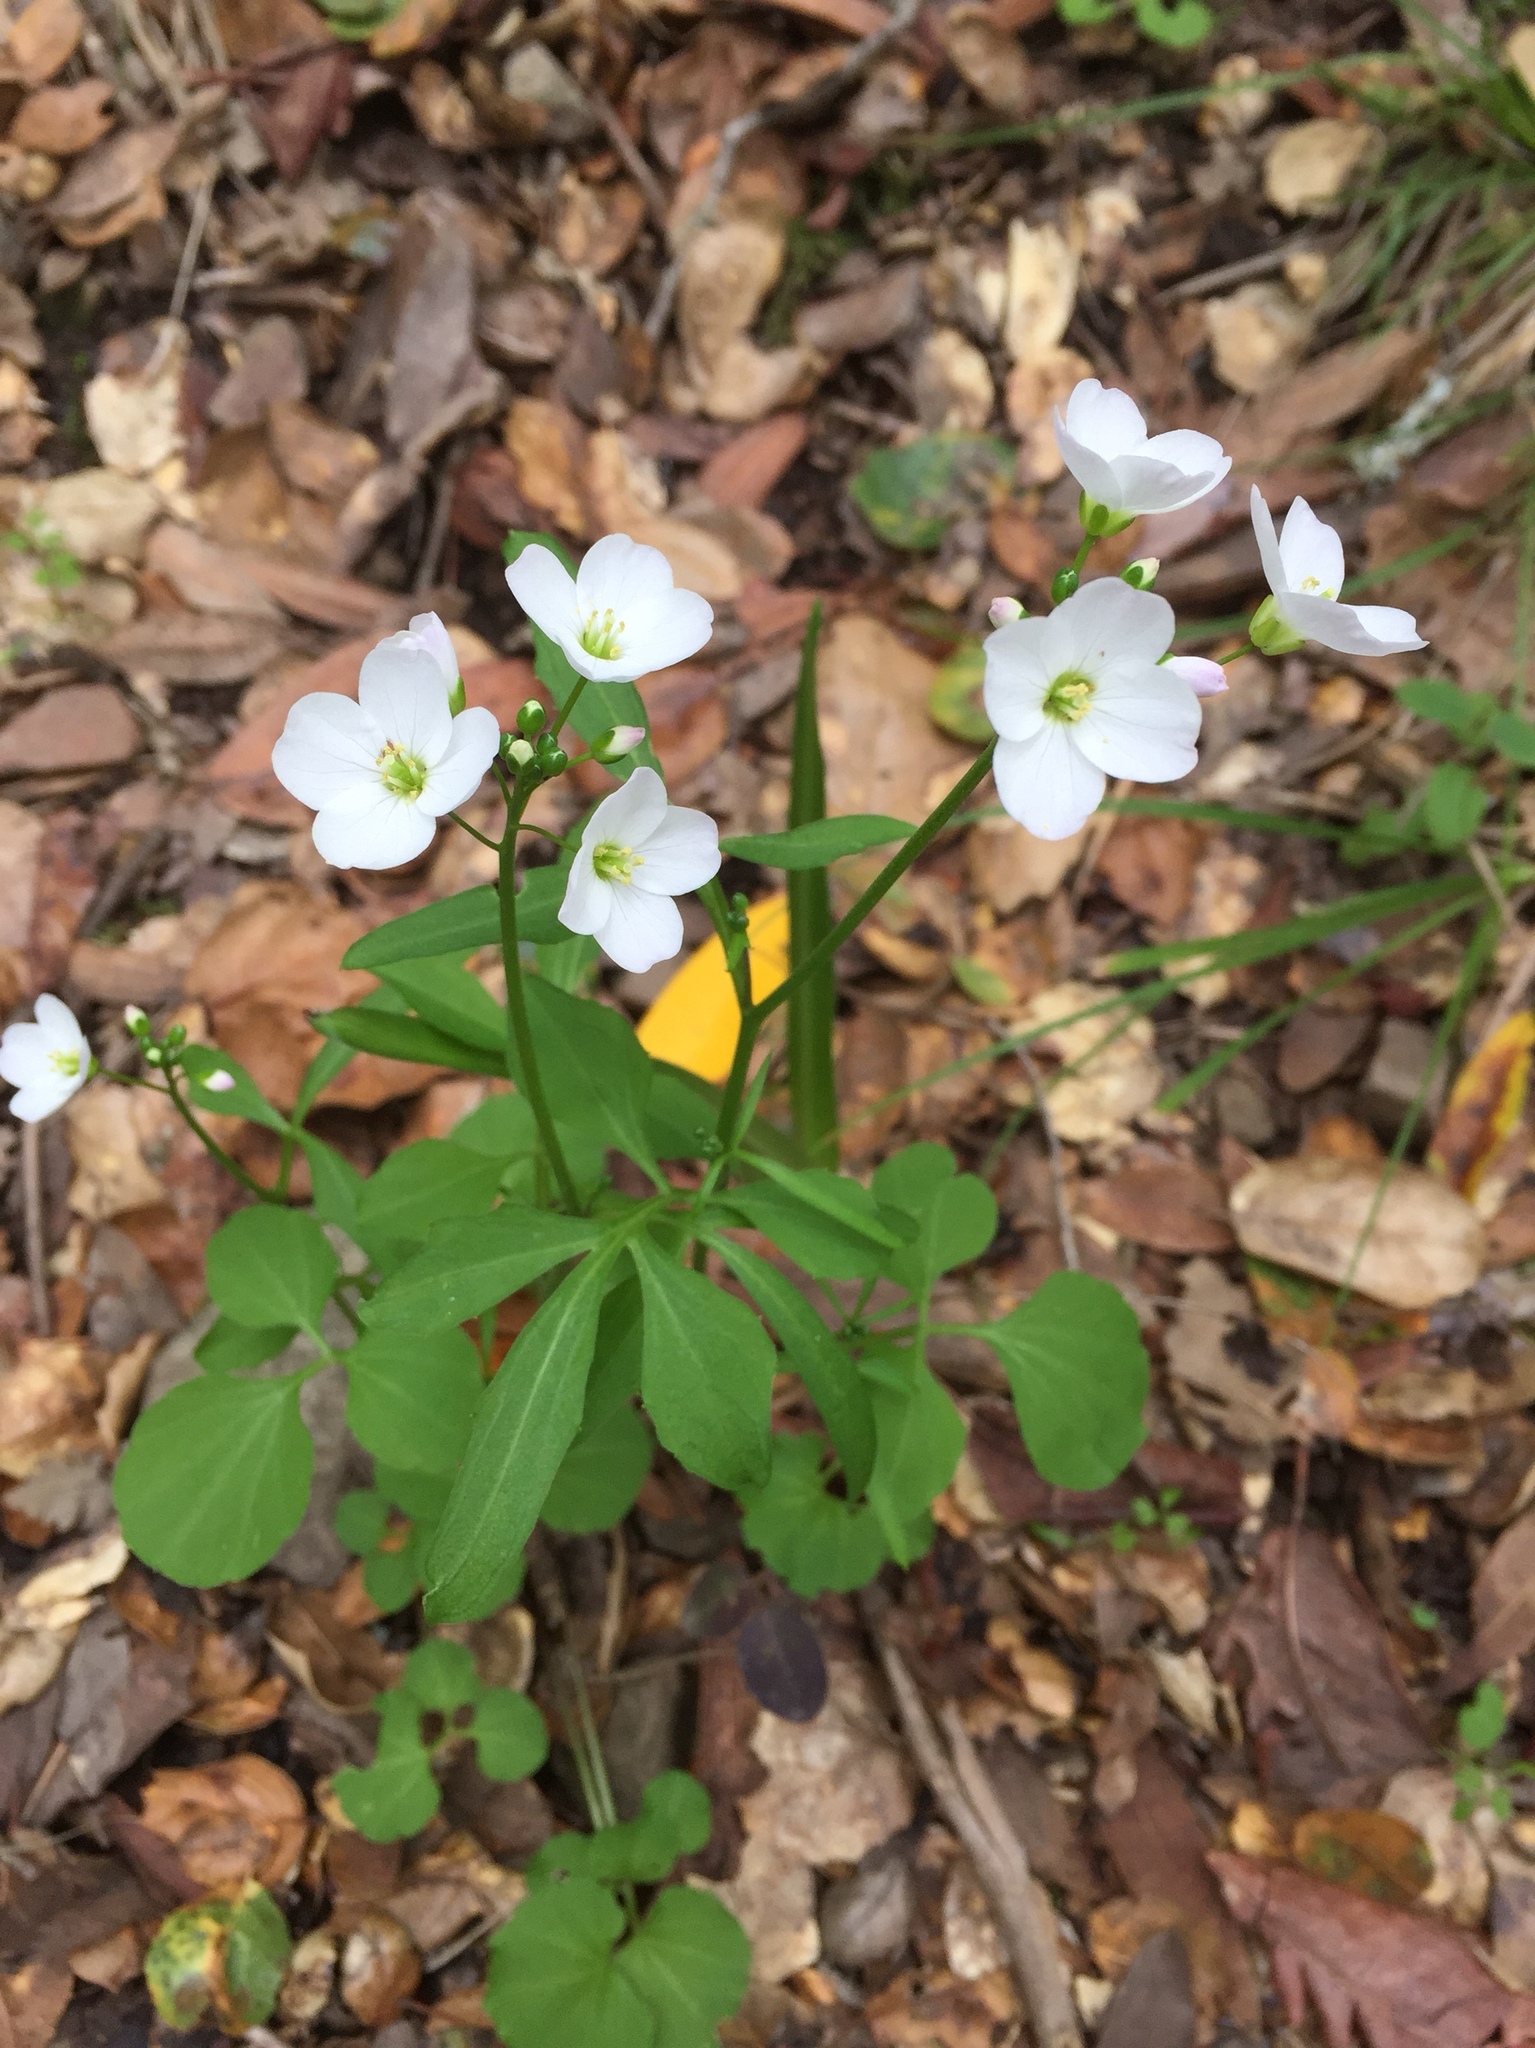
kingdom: Plantae
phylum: Tracheophyta
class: Magnoliopsida
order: Brassicales
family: Brassicaceae
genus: Cardamine
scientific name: Cardamine californica
